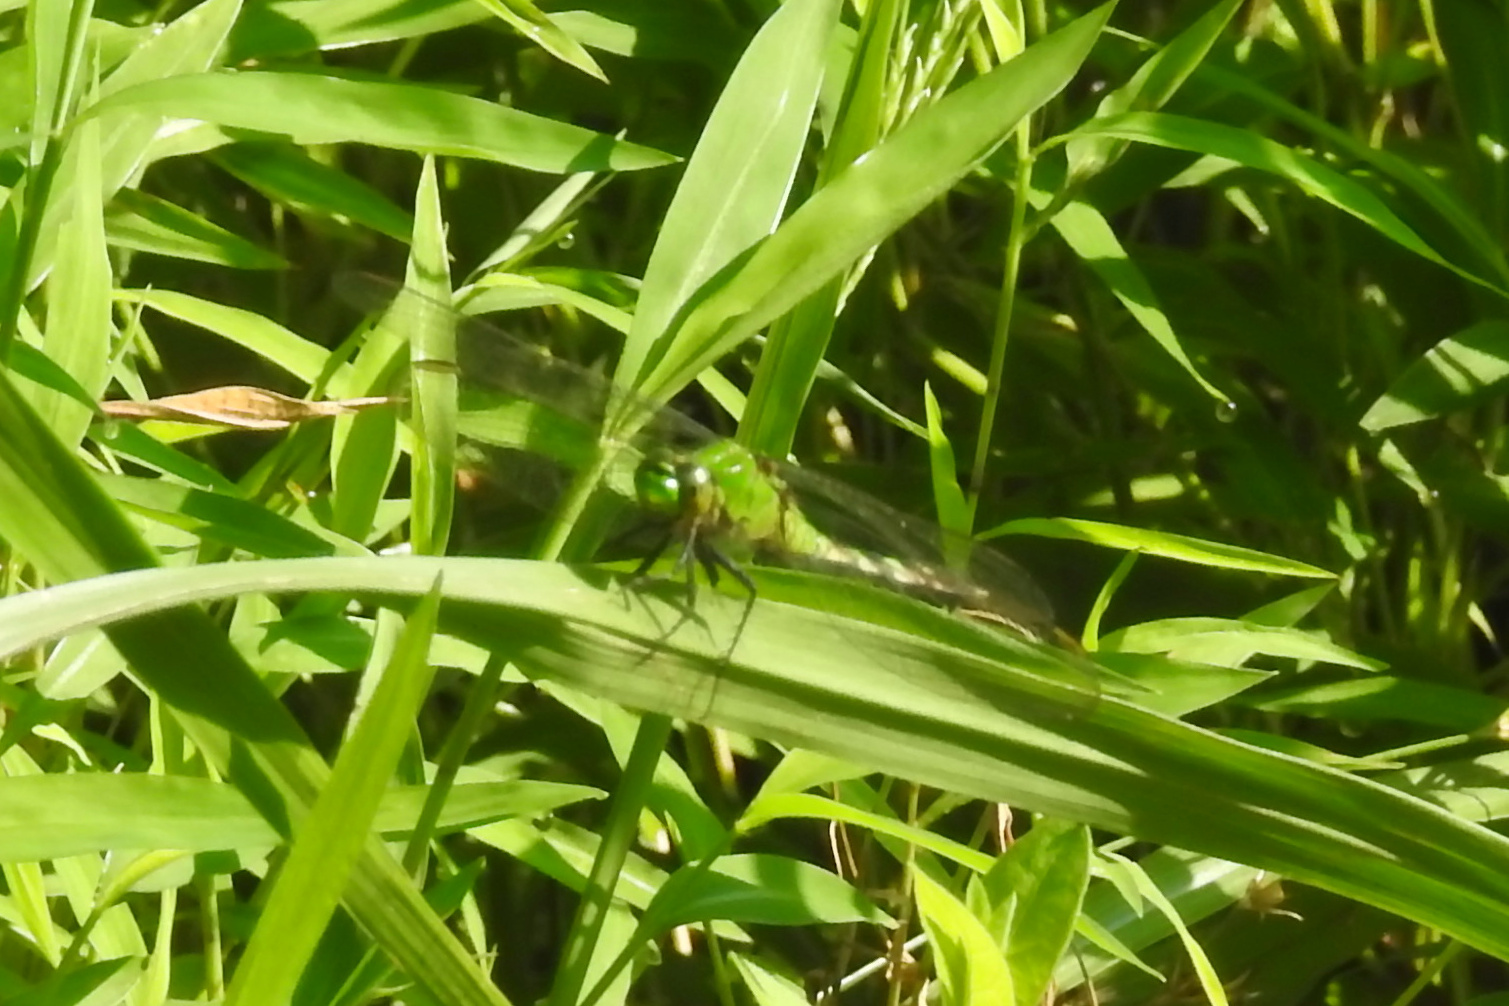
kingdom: Animalia
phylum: Arthropoda
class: Insecta
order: Odonata
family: Libellulidae
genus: Erythemis
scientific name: Erythemis simplicicollis
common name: Eastern pondhawk
